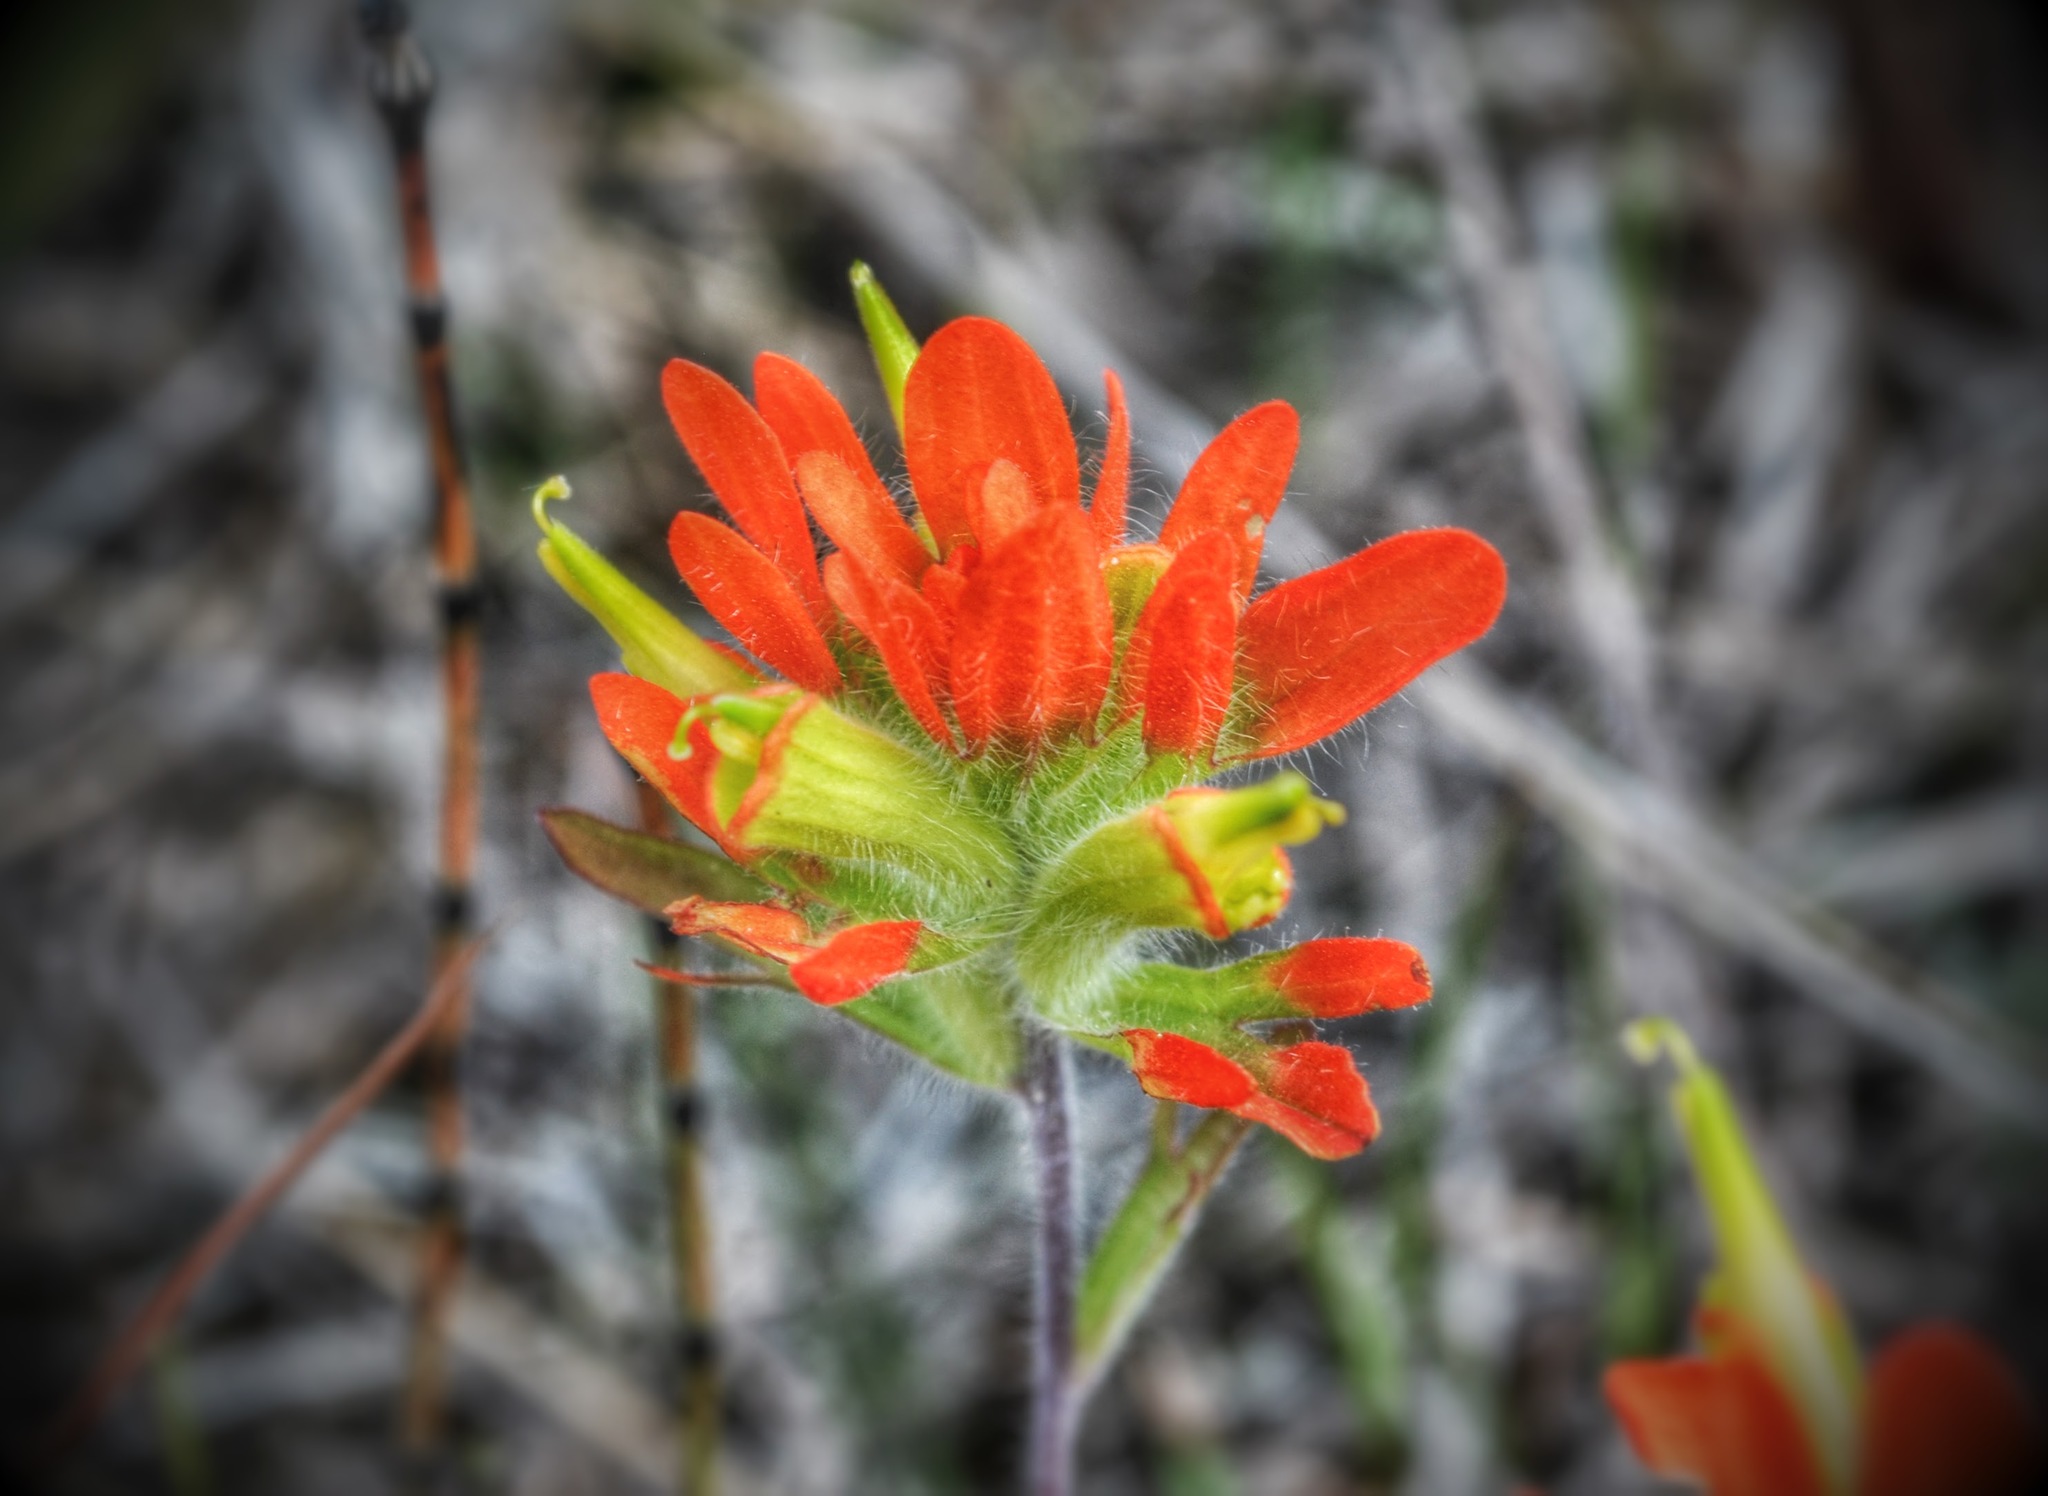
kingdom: Plantae
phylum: Tracheophyta
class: Magnoliopsida
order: Lamiales
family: Orobanchaceae
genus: Castilleja
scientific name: Castilleja coccinea
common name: Scarlet paintbrush
